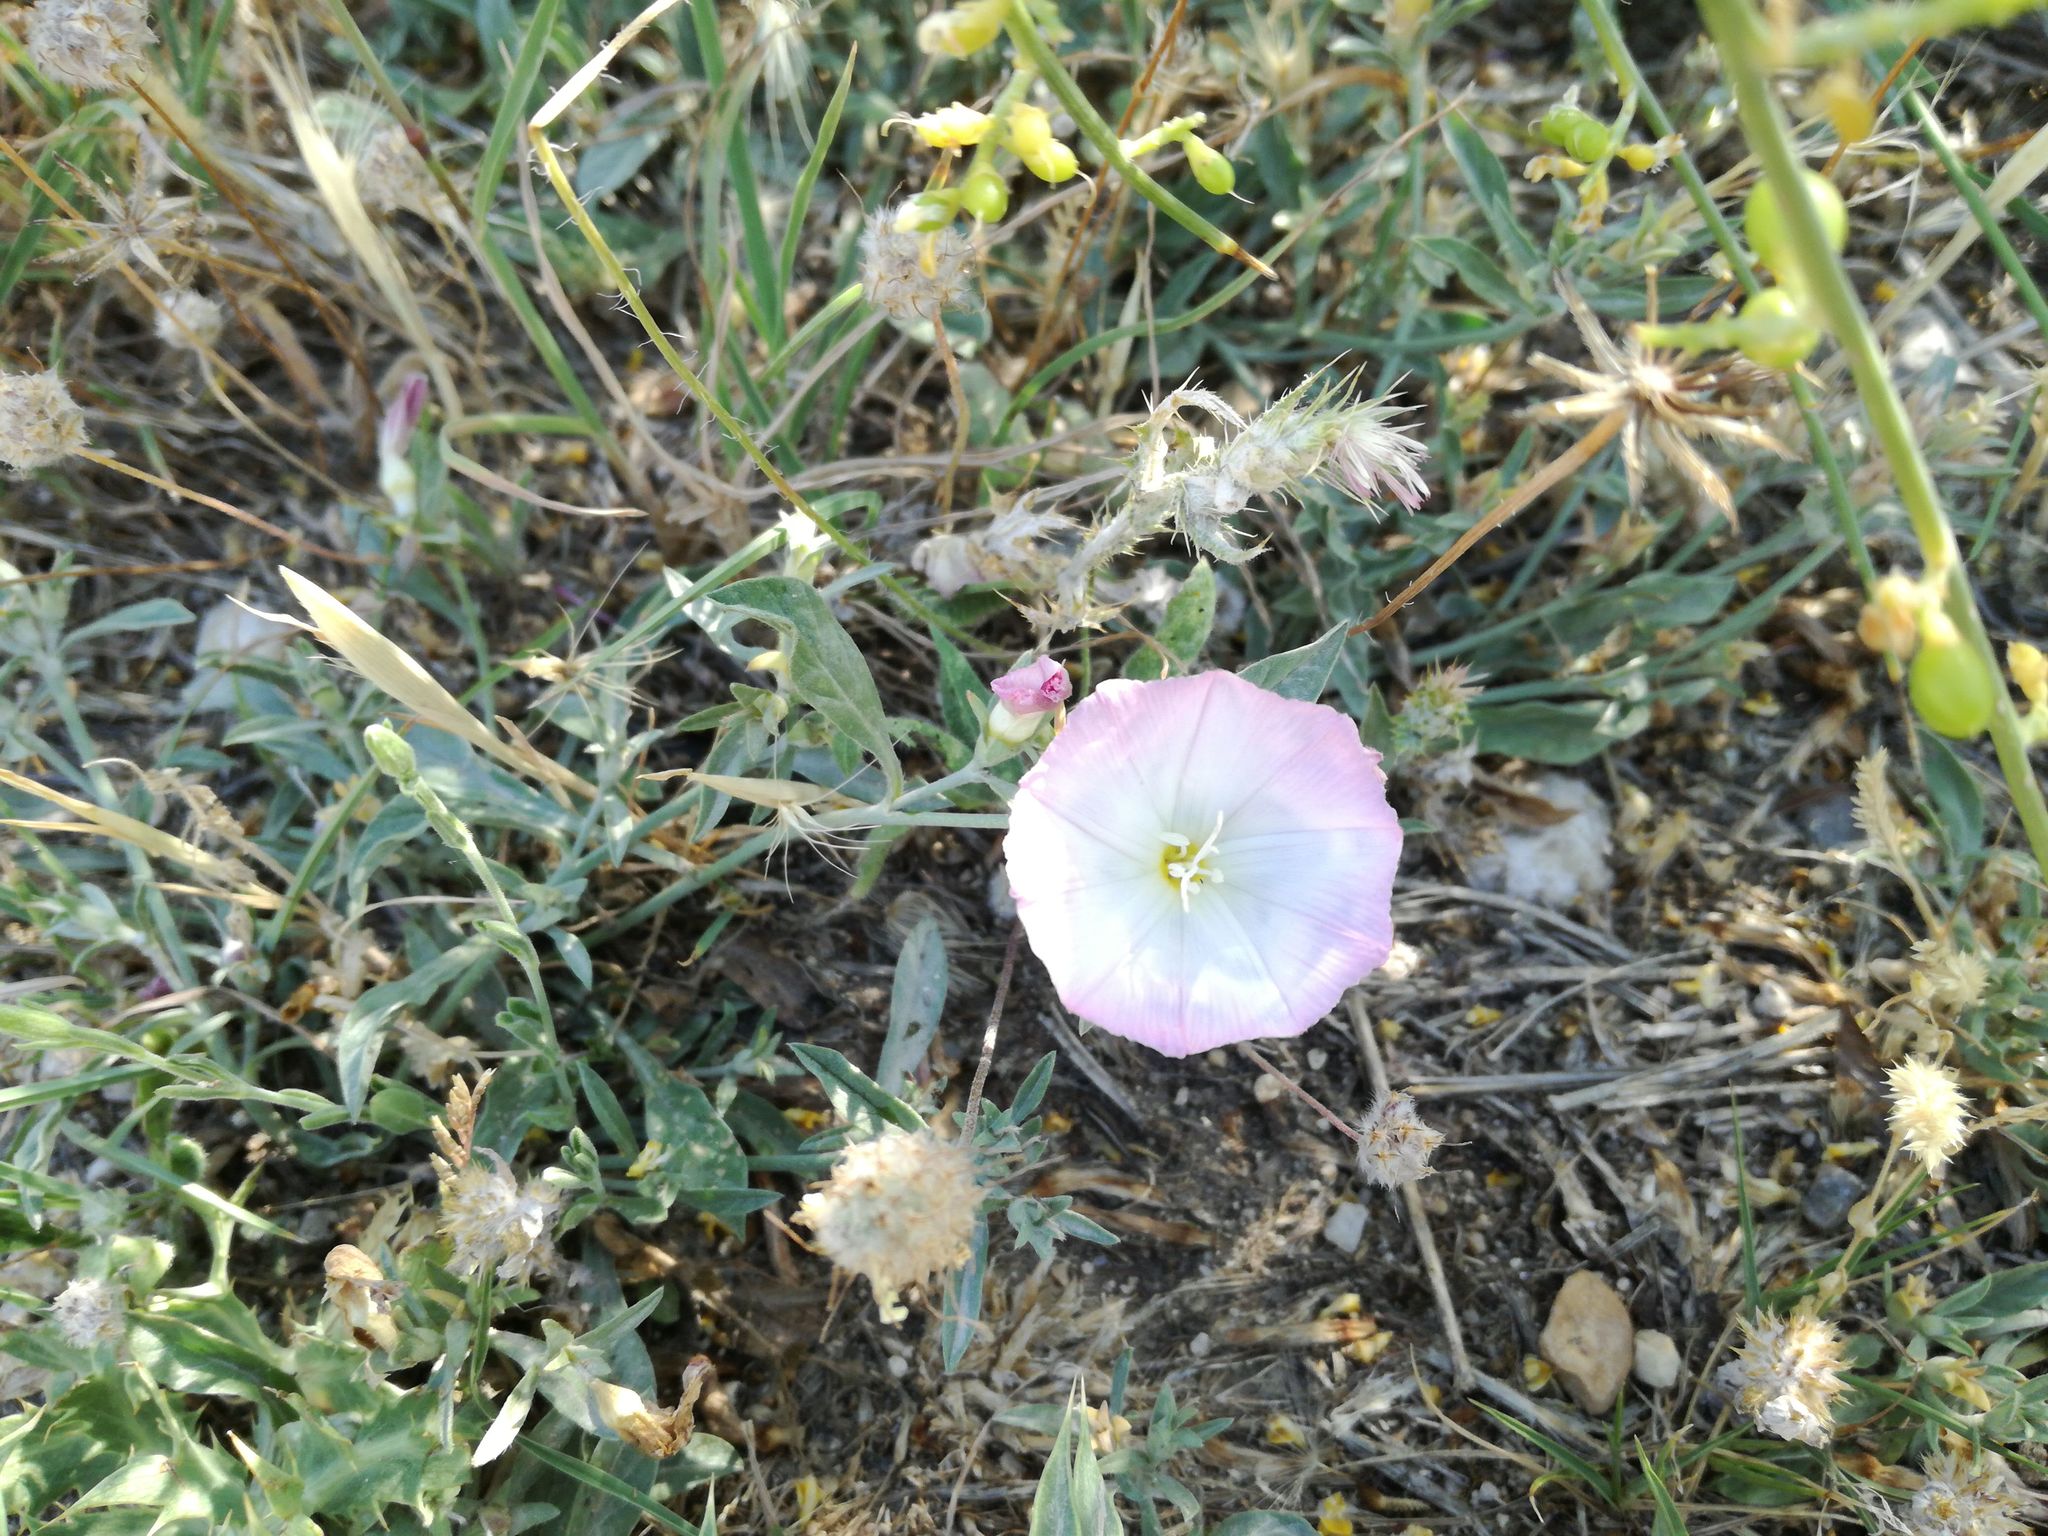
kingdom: Plantae
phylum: Tracheophyta
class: Magnoliopsida
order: Solanales
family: Convolvulaceae
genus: Convolvulus
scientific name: Convolvulus lineatus
